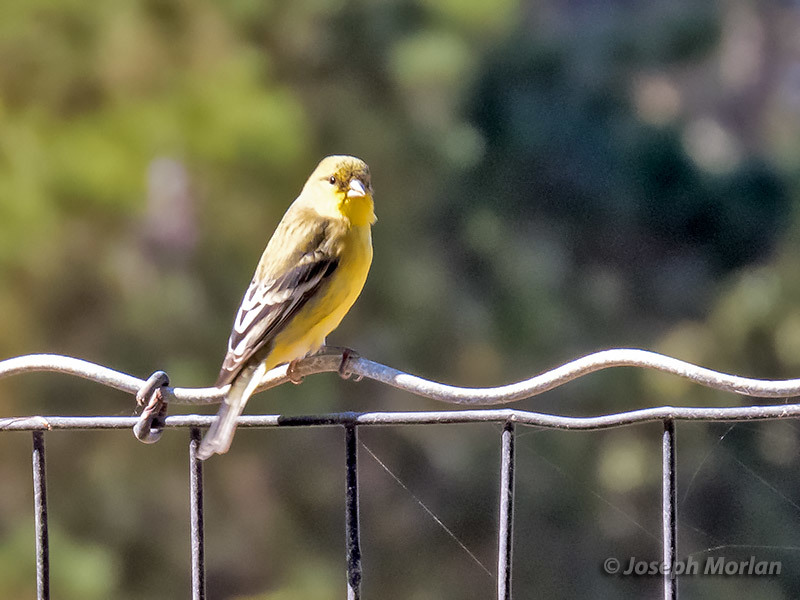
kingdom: Animalia
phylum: Chordata
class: Aves
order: Passeriformes
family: Fringillidae
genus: Spinus
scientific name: Spinus psaltria
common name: Lesser goldfinch
